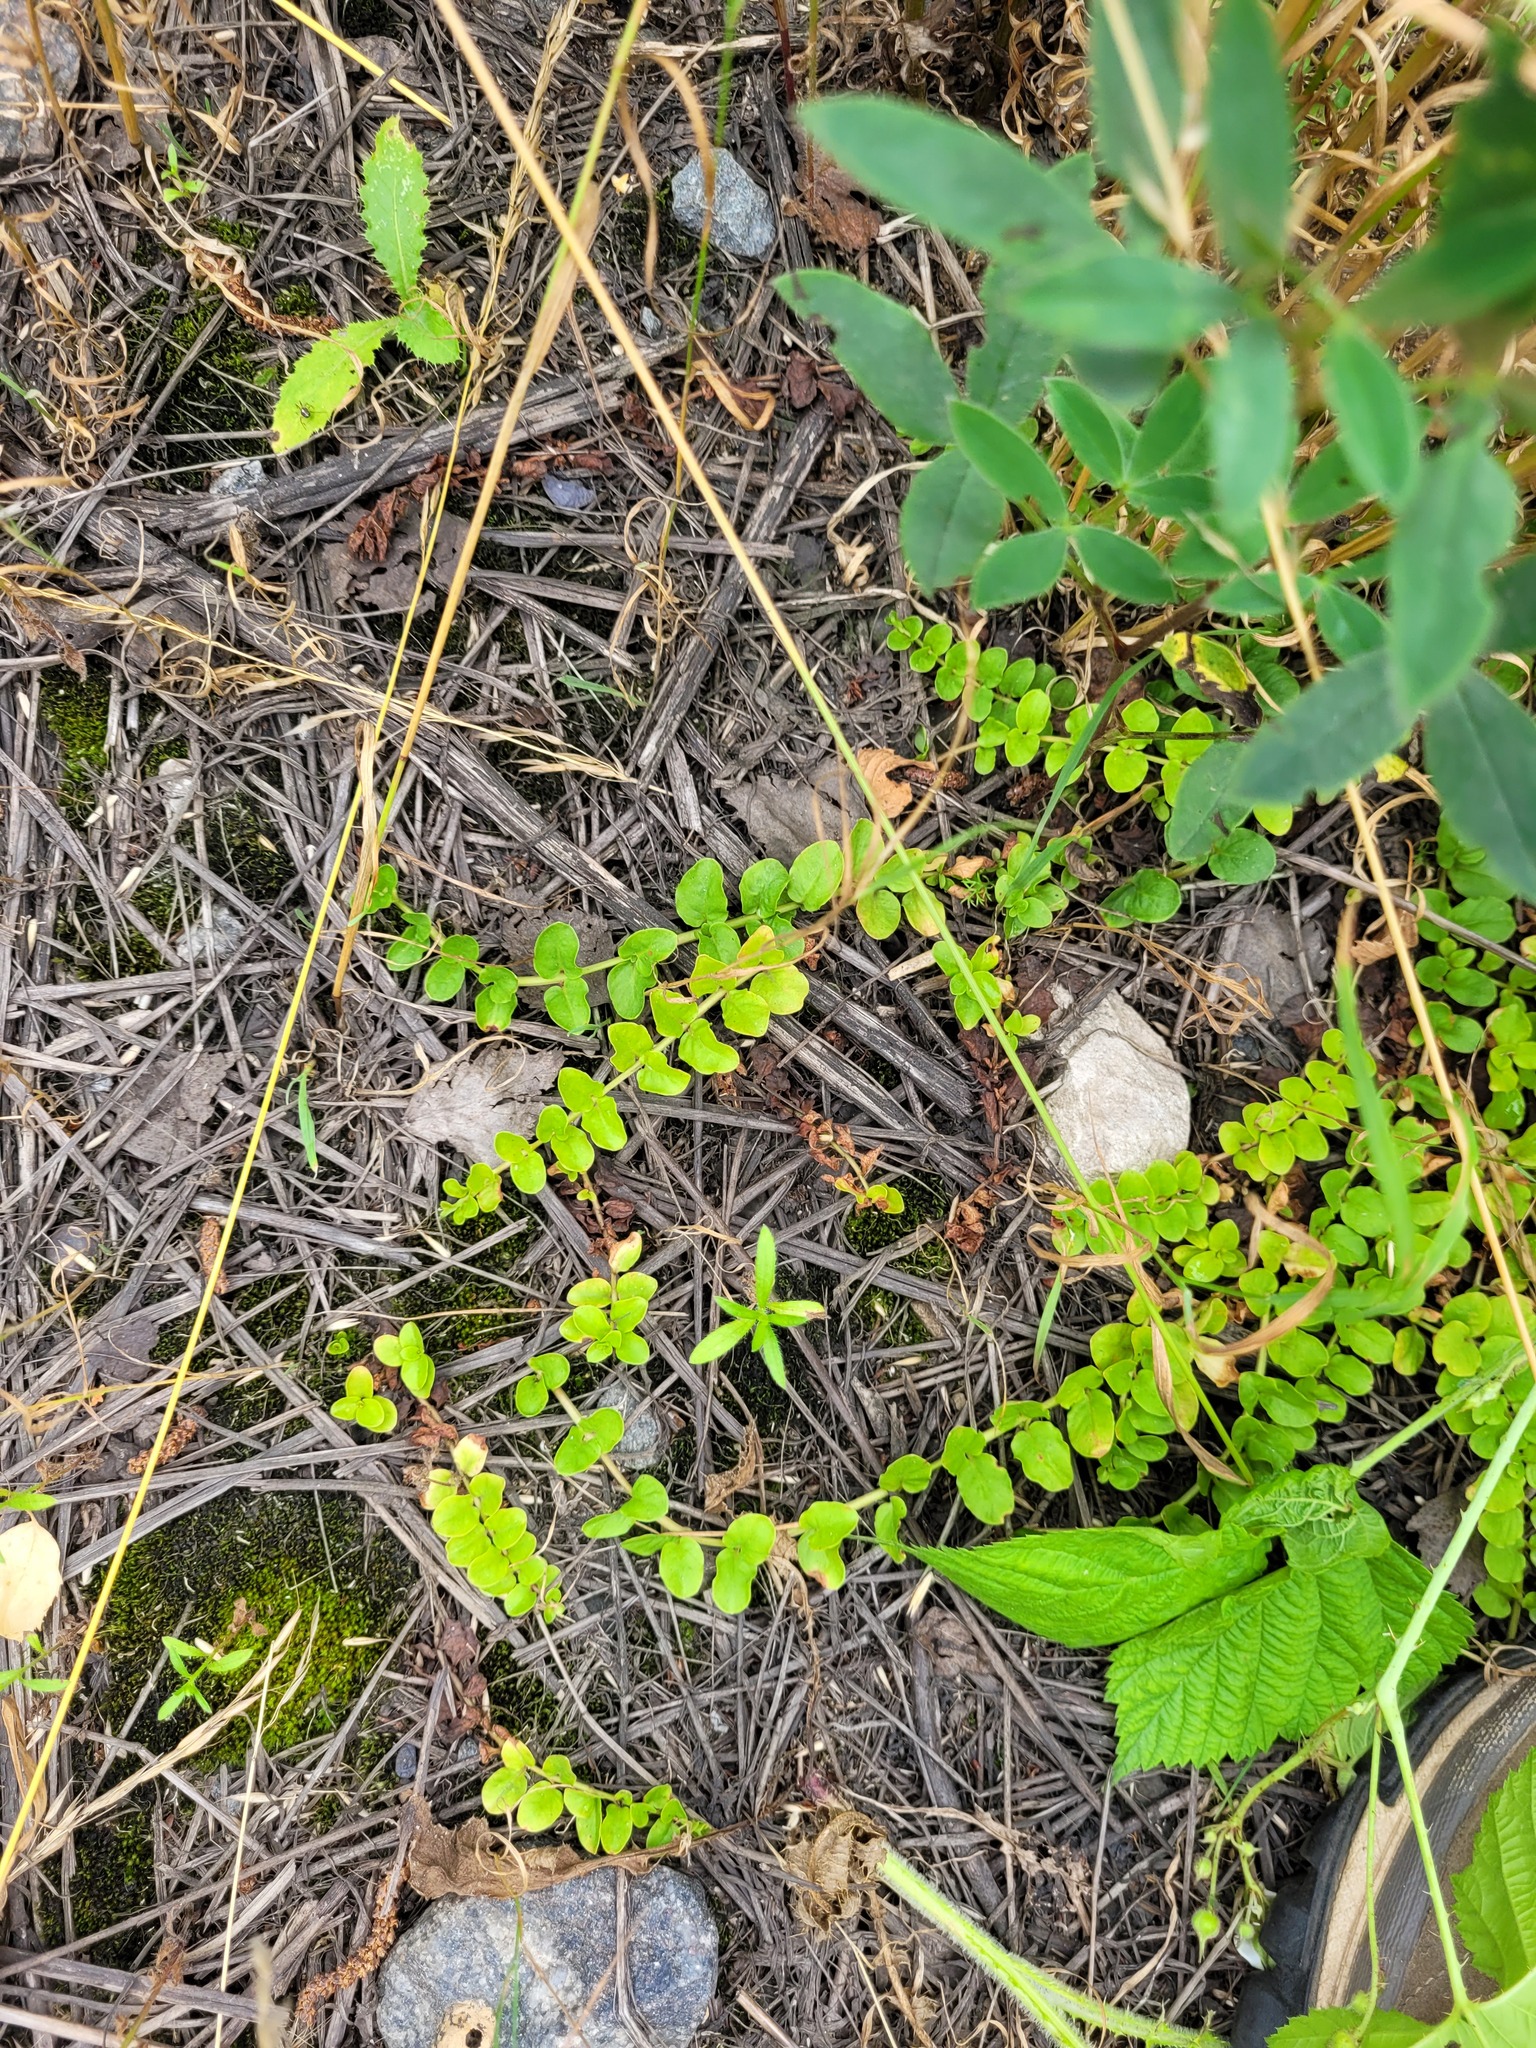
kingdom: Plantae
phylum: Tracheophyta
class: Magnoliopsida
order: Ericales
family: Primulaceae
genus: Lysimachia
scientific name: Lysimachia nummularia
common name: Moneywort
